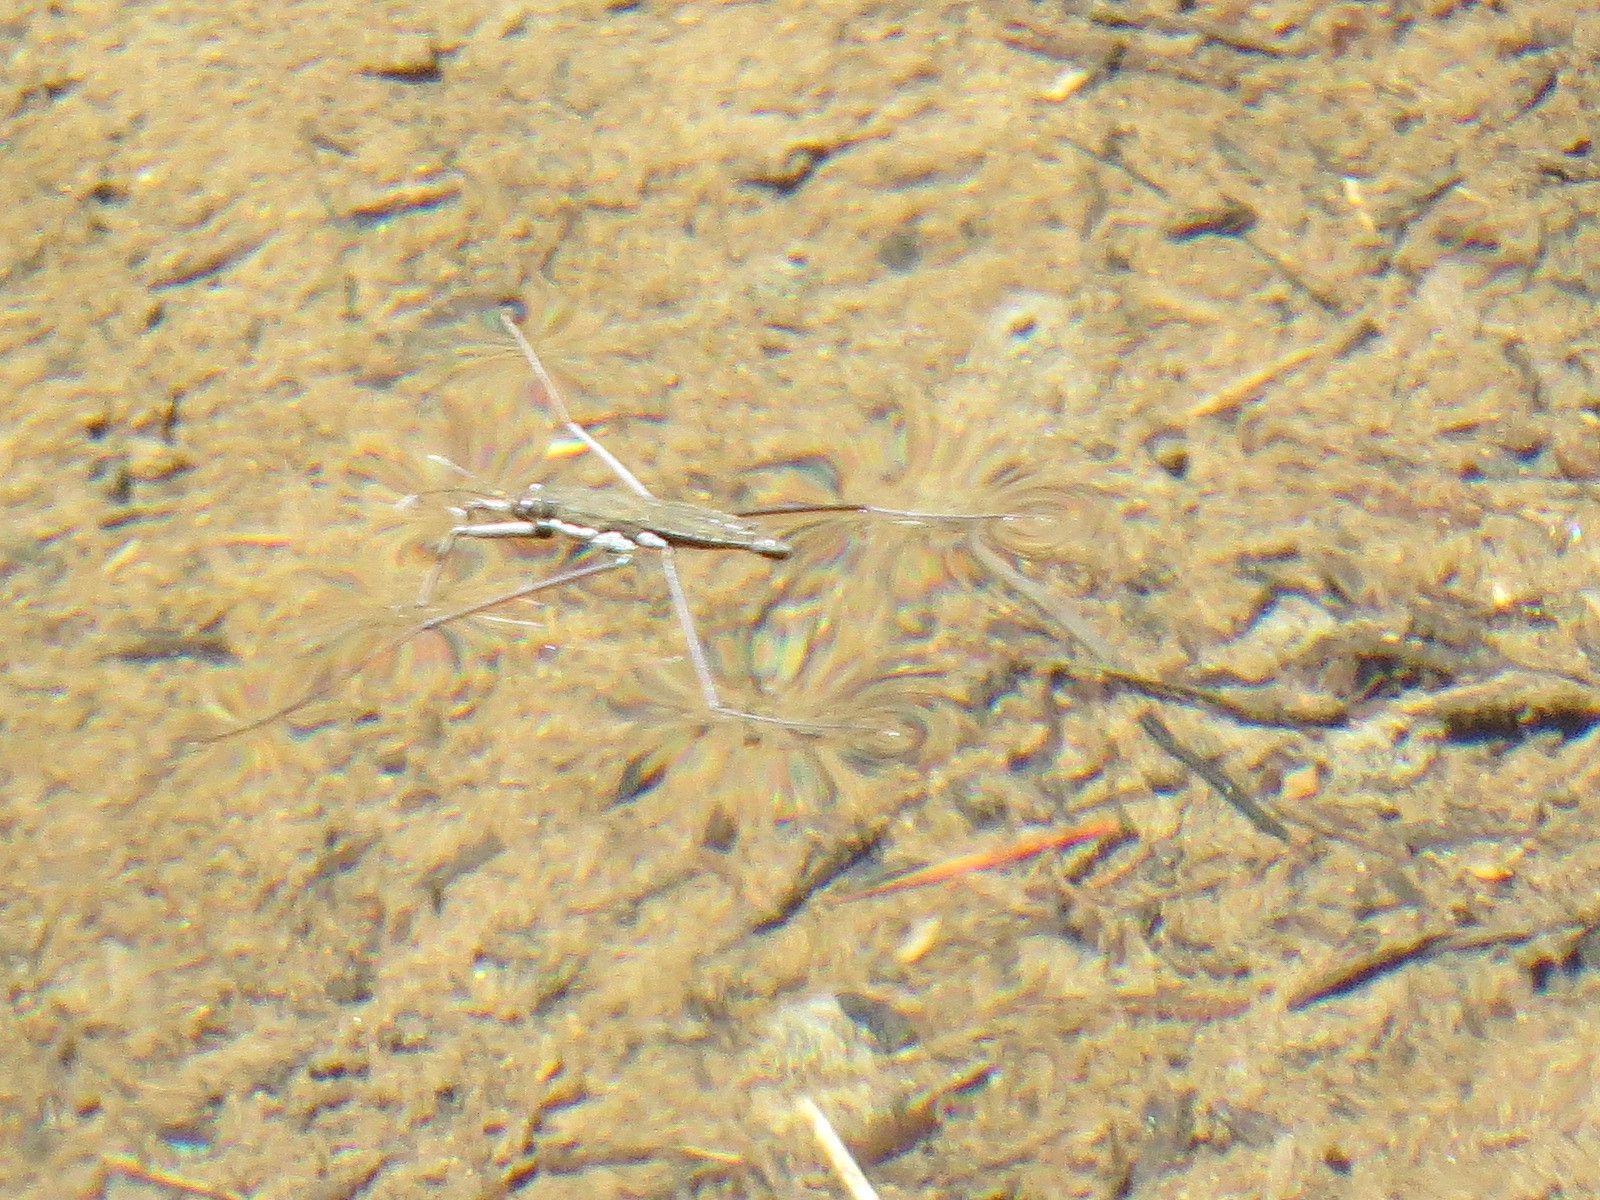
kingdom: Animalia
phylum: Arthropoda
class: Insecta
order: Hemiptera
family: Gerridae
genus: Aquarius
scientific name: Aquarius remigis
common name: Common water strider
